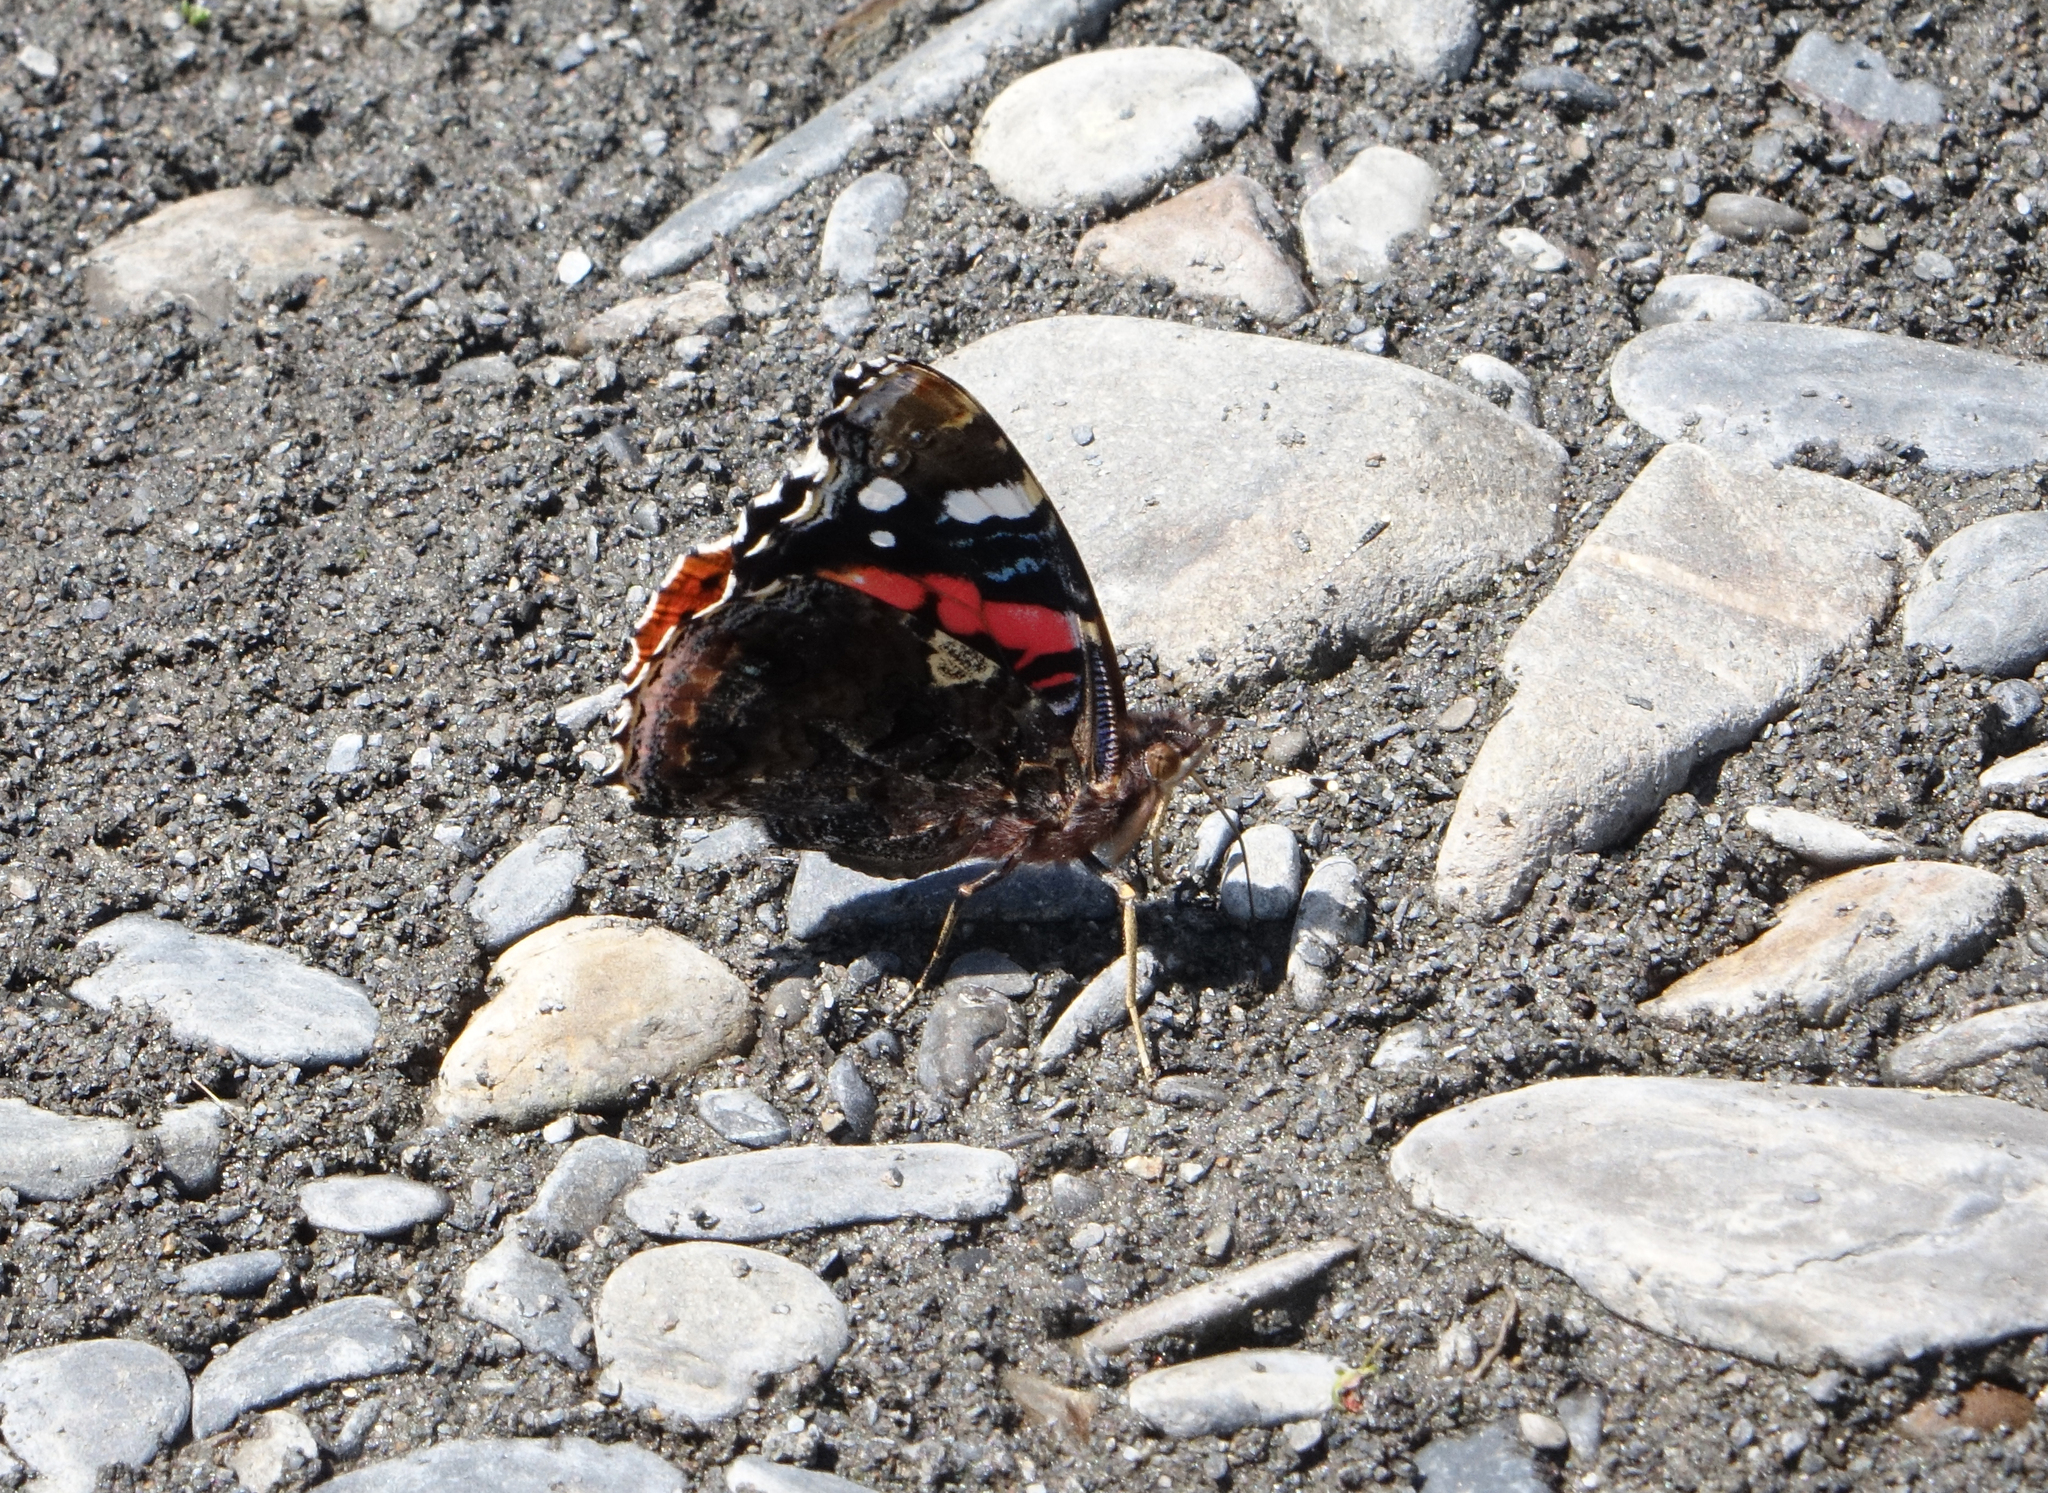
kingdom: Animalia
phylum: Arthropoda
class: Insecta
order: Lepidoptera
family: Nymphalidae
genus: Vanessa
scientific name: Vanessa atalanta
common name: Red admiral
